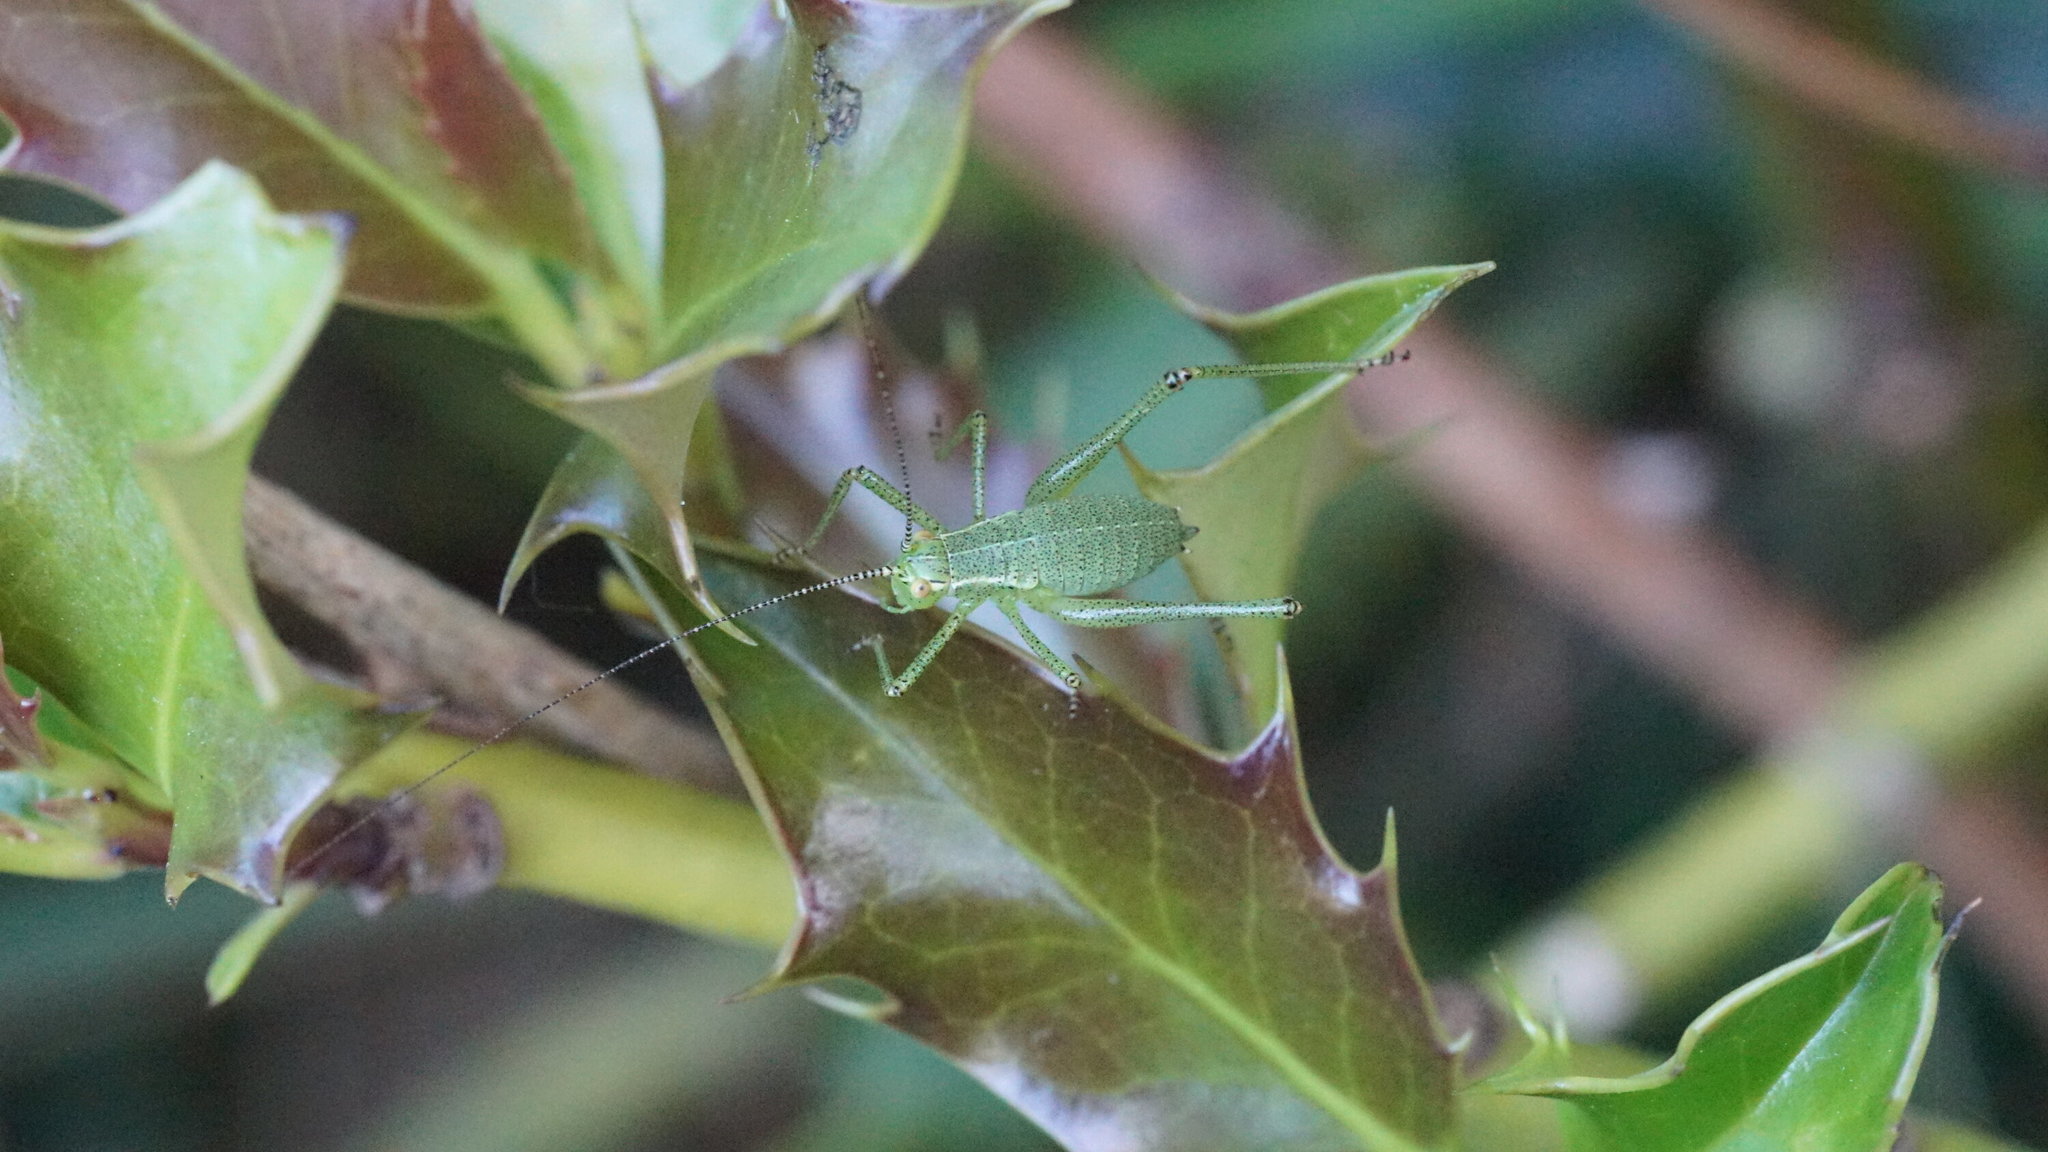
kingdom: Animalia
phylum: Arthropoda
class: Insecta
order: Orthoptera
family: Tettigoniidae
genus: Leptophyes
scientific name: Leptophyes punctatissima
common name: Speckled bush-cricket
